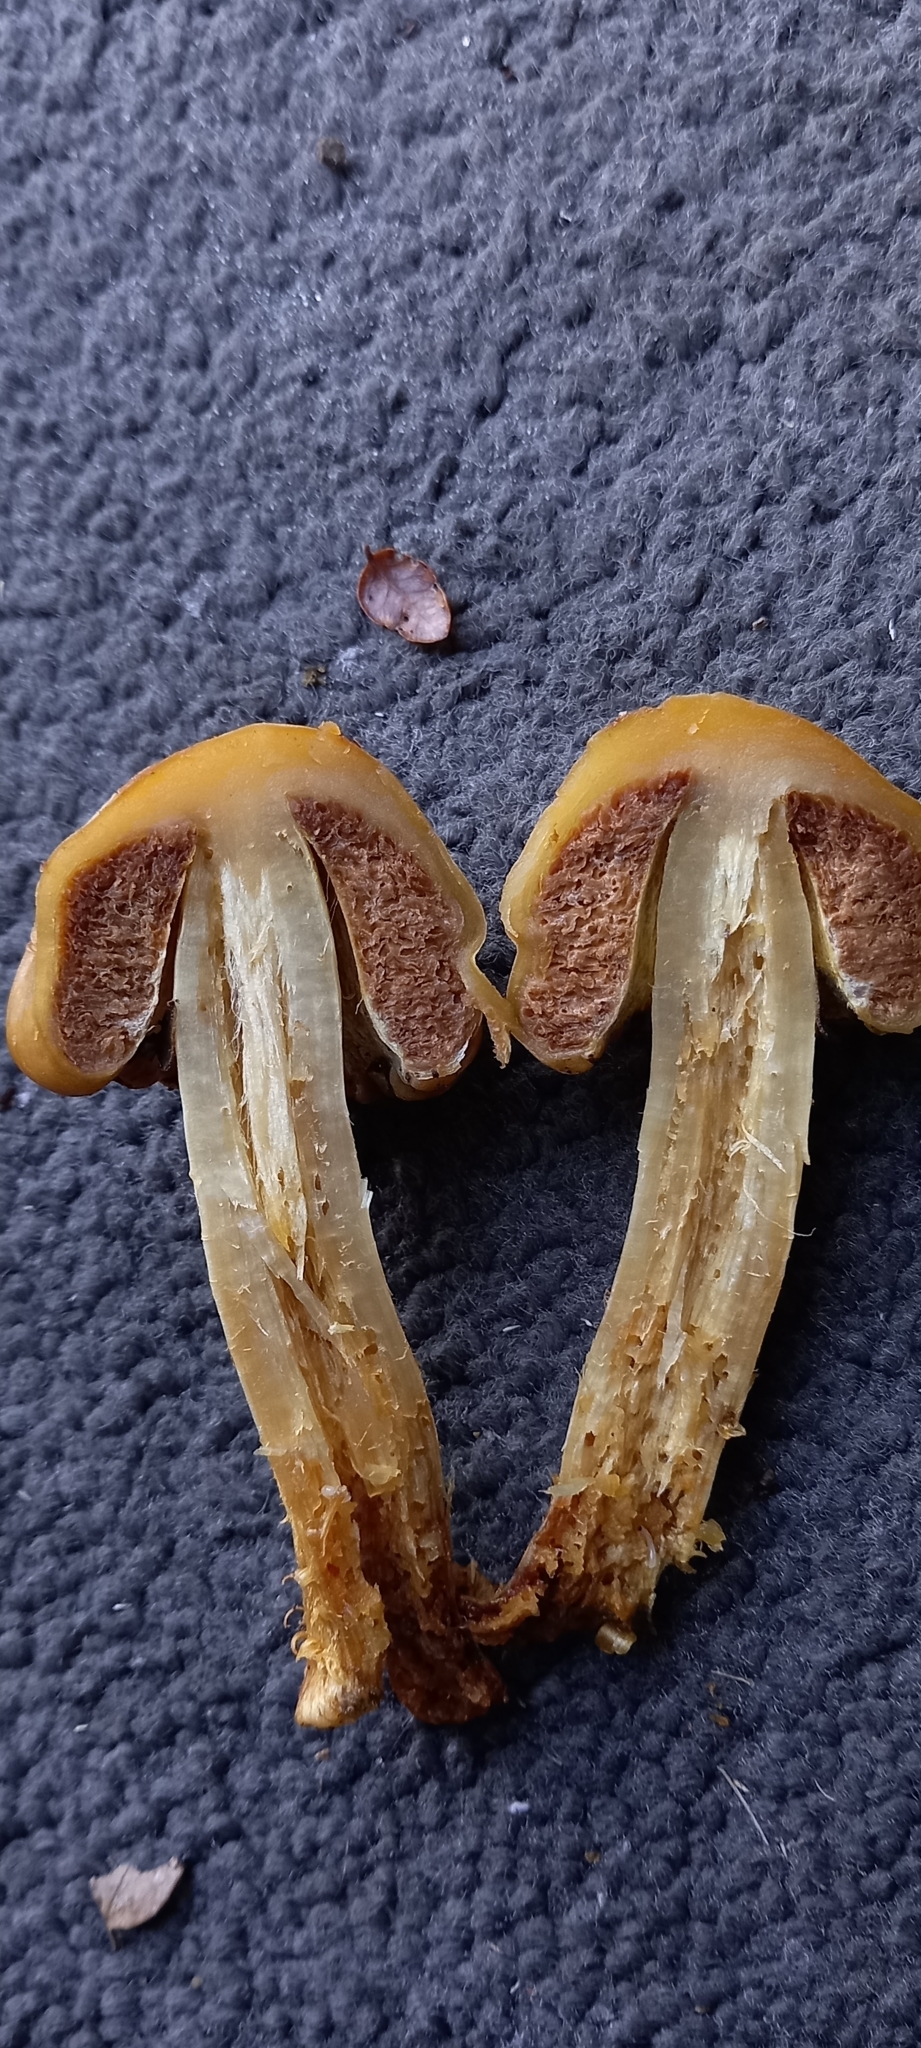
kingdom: Fungi
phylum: Basidiomycota
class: Agaricomycetes
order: Agaricales
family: Cortinariaceae
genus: Cortinarius
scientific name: Cortinarius epiphaeus
